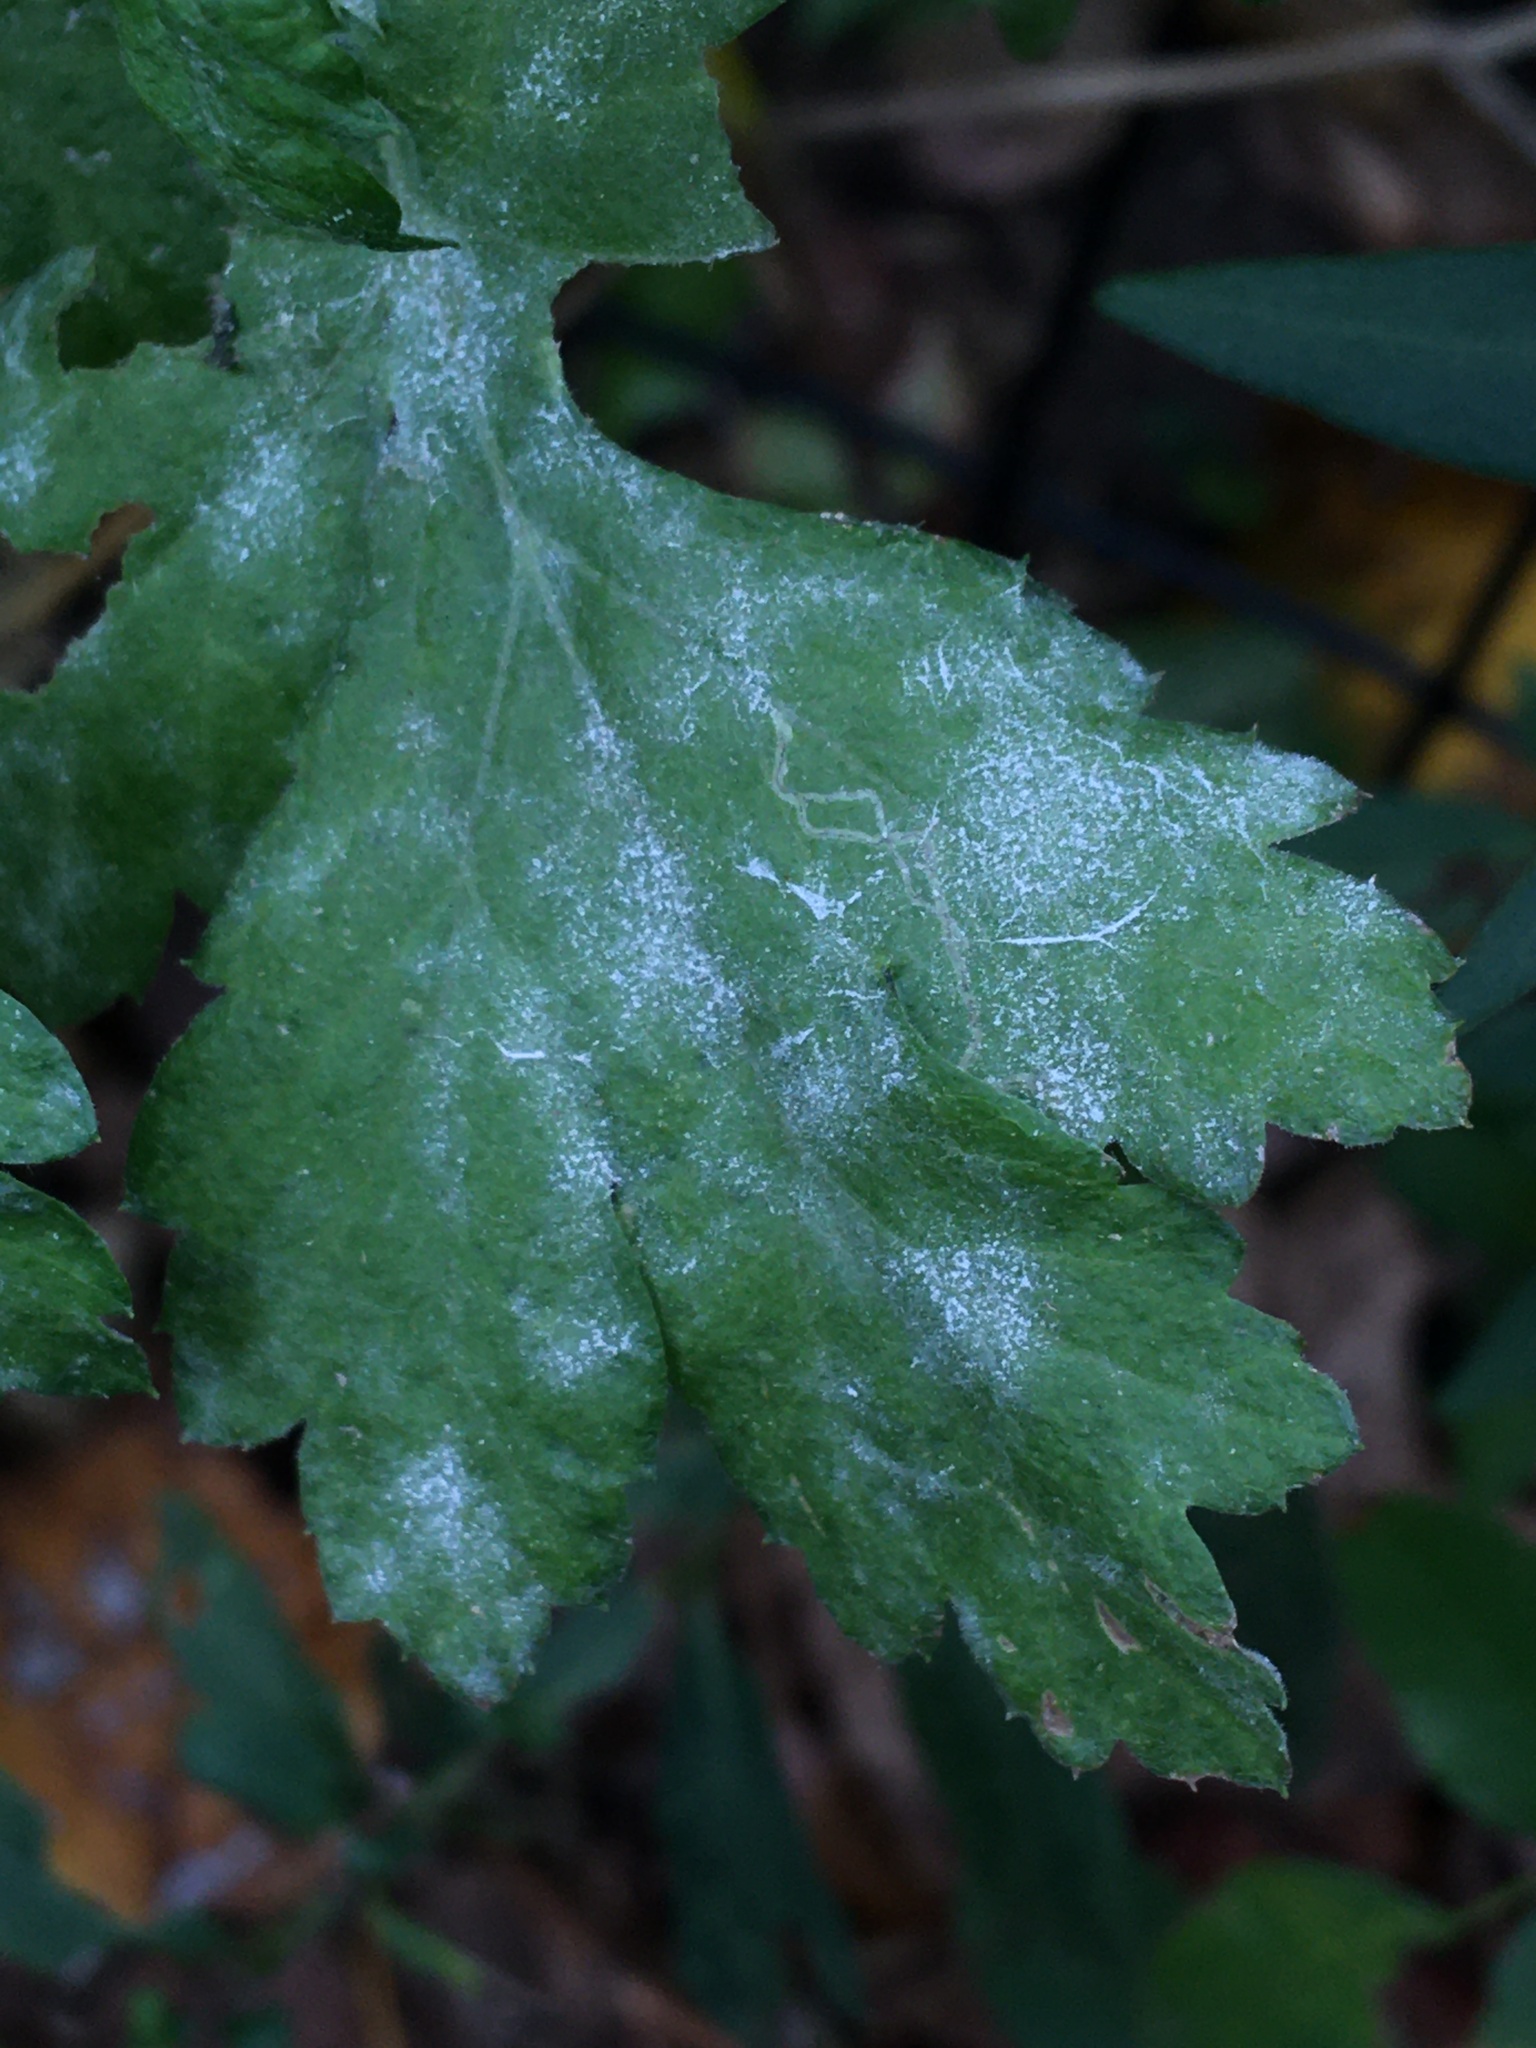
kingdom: Fungi
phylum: Ascomycota
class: Leotiomycetes
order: Helotiales
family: Erysiphaceae
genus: Golovinomyces
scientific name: Golovinomyces artemisiae
